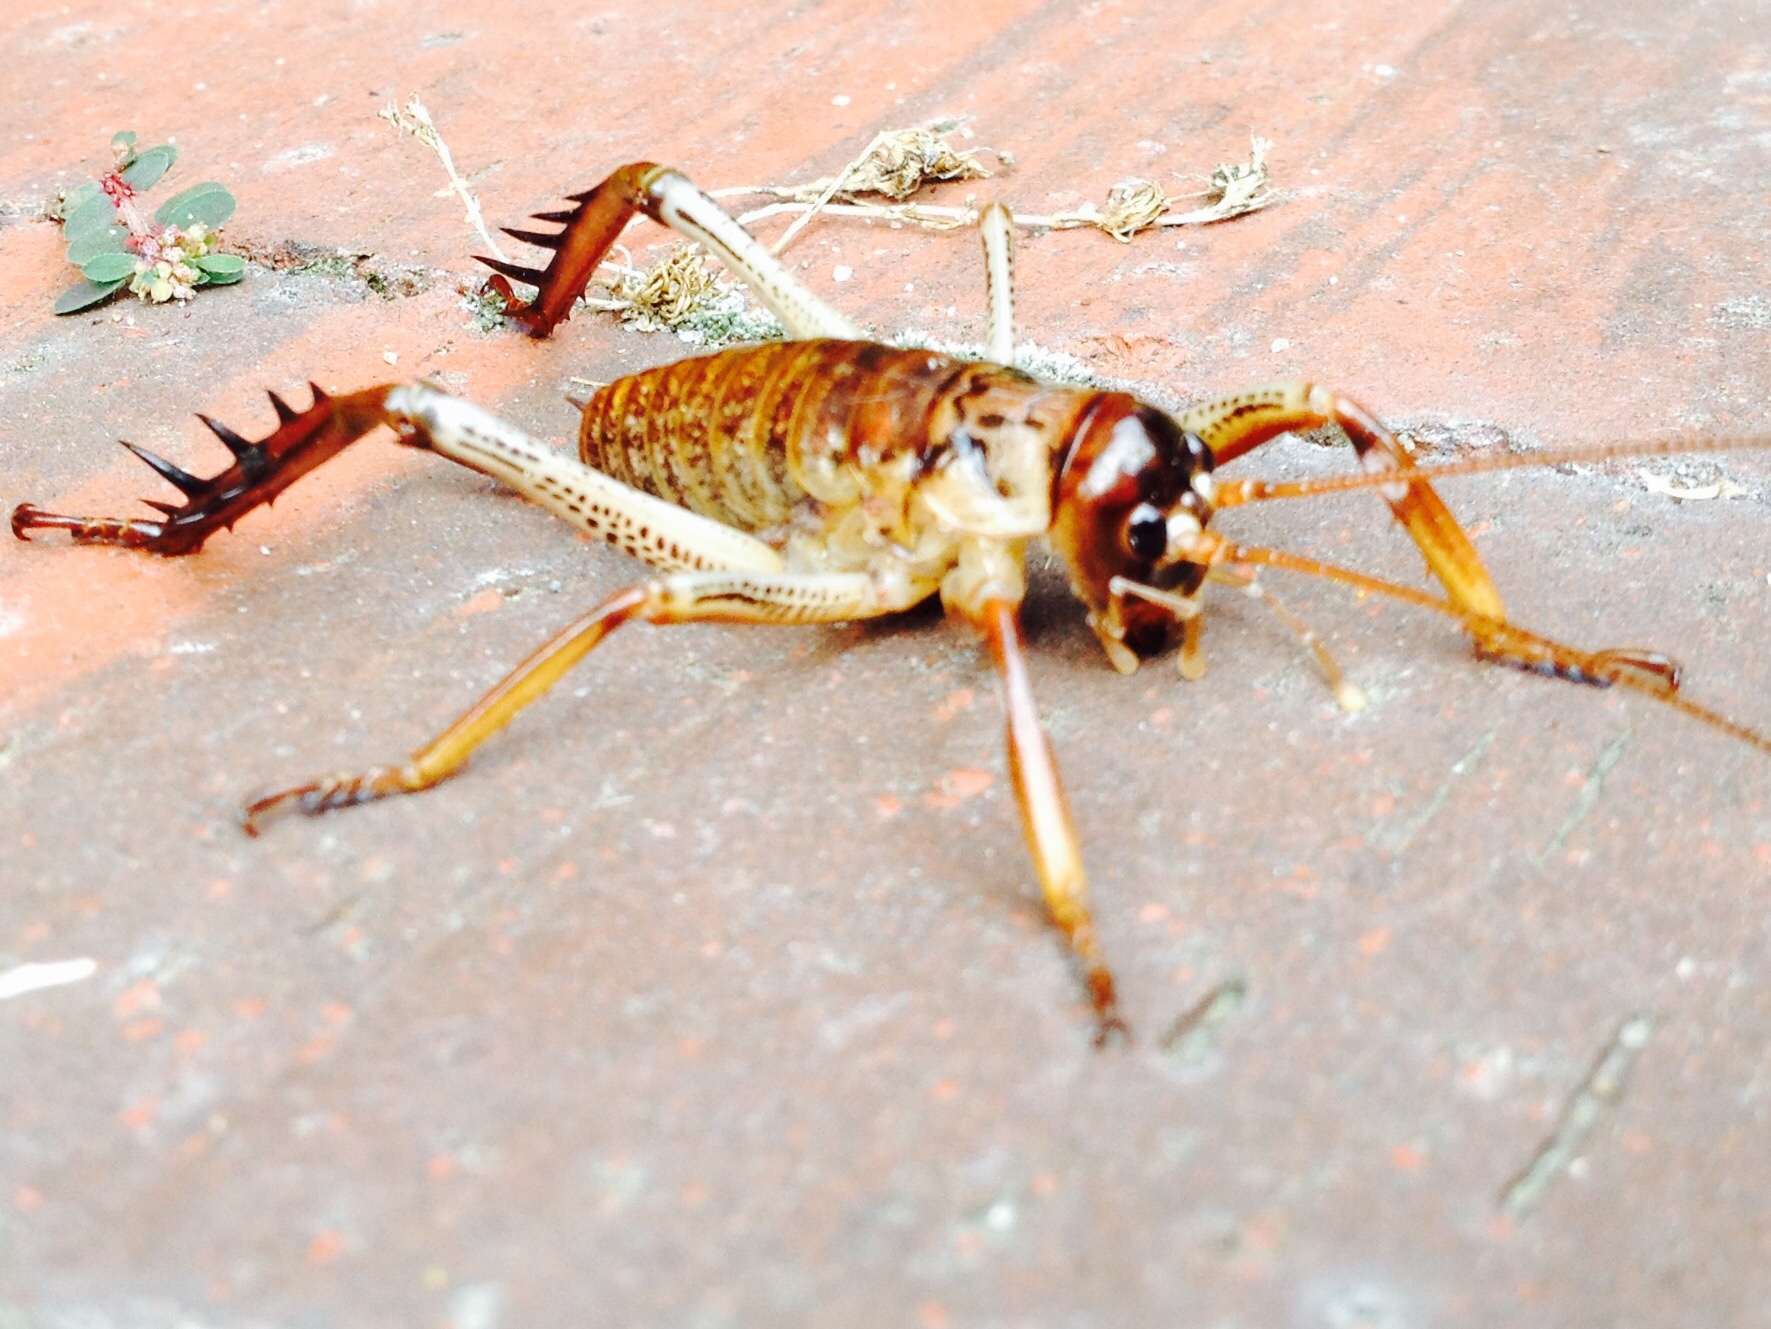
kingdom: Animalia
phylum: Arthropoda
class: Insecta
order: Orthoptera
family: Anostostomatidae
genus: Hemideina
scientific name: Hemideina thoracica
